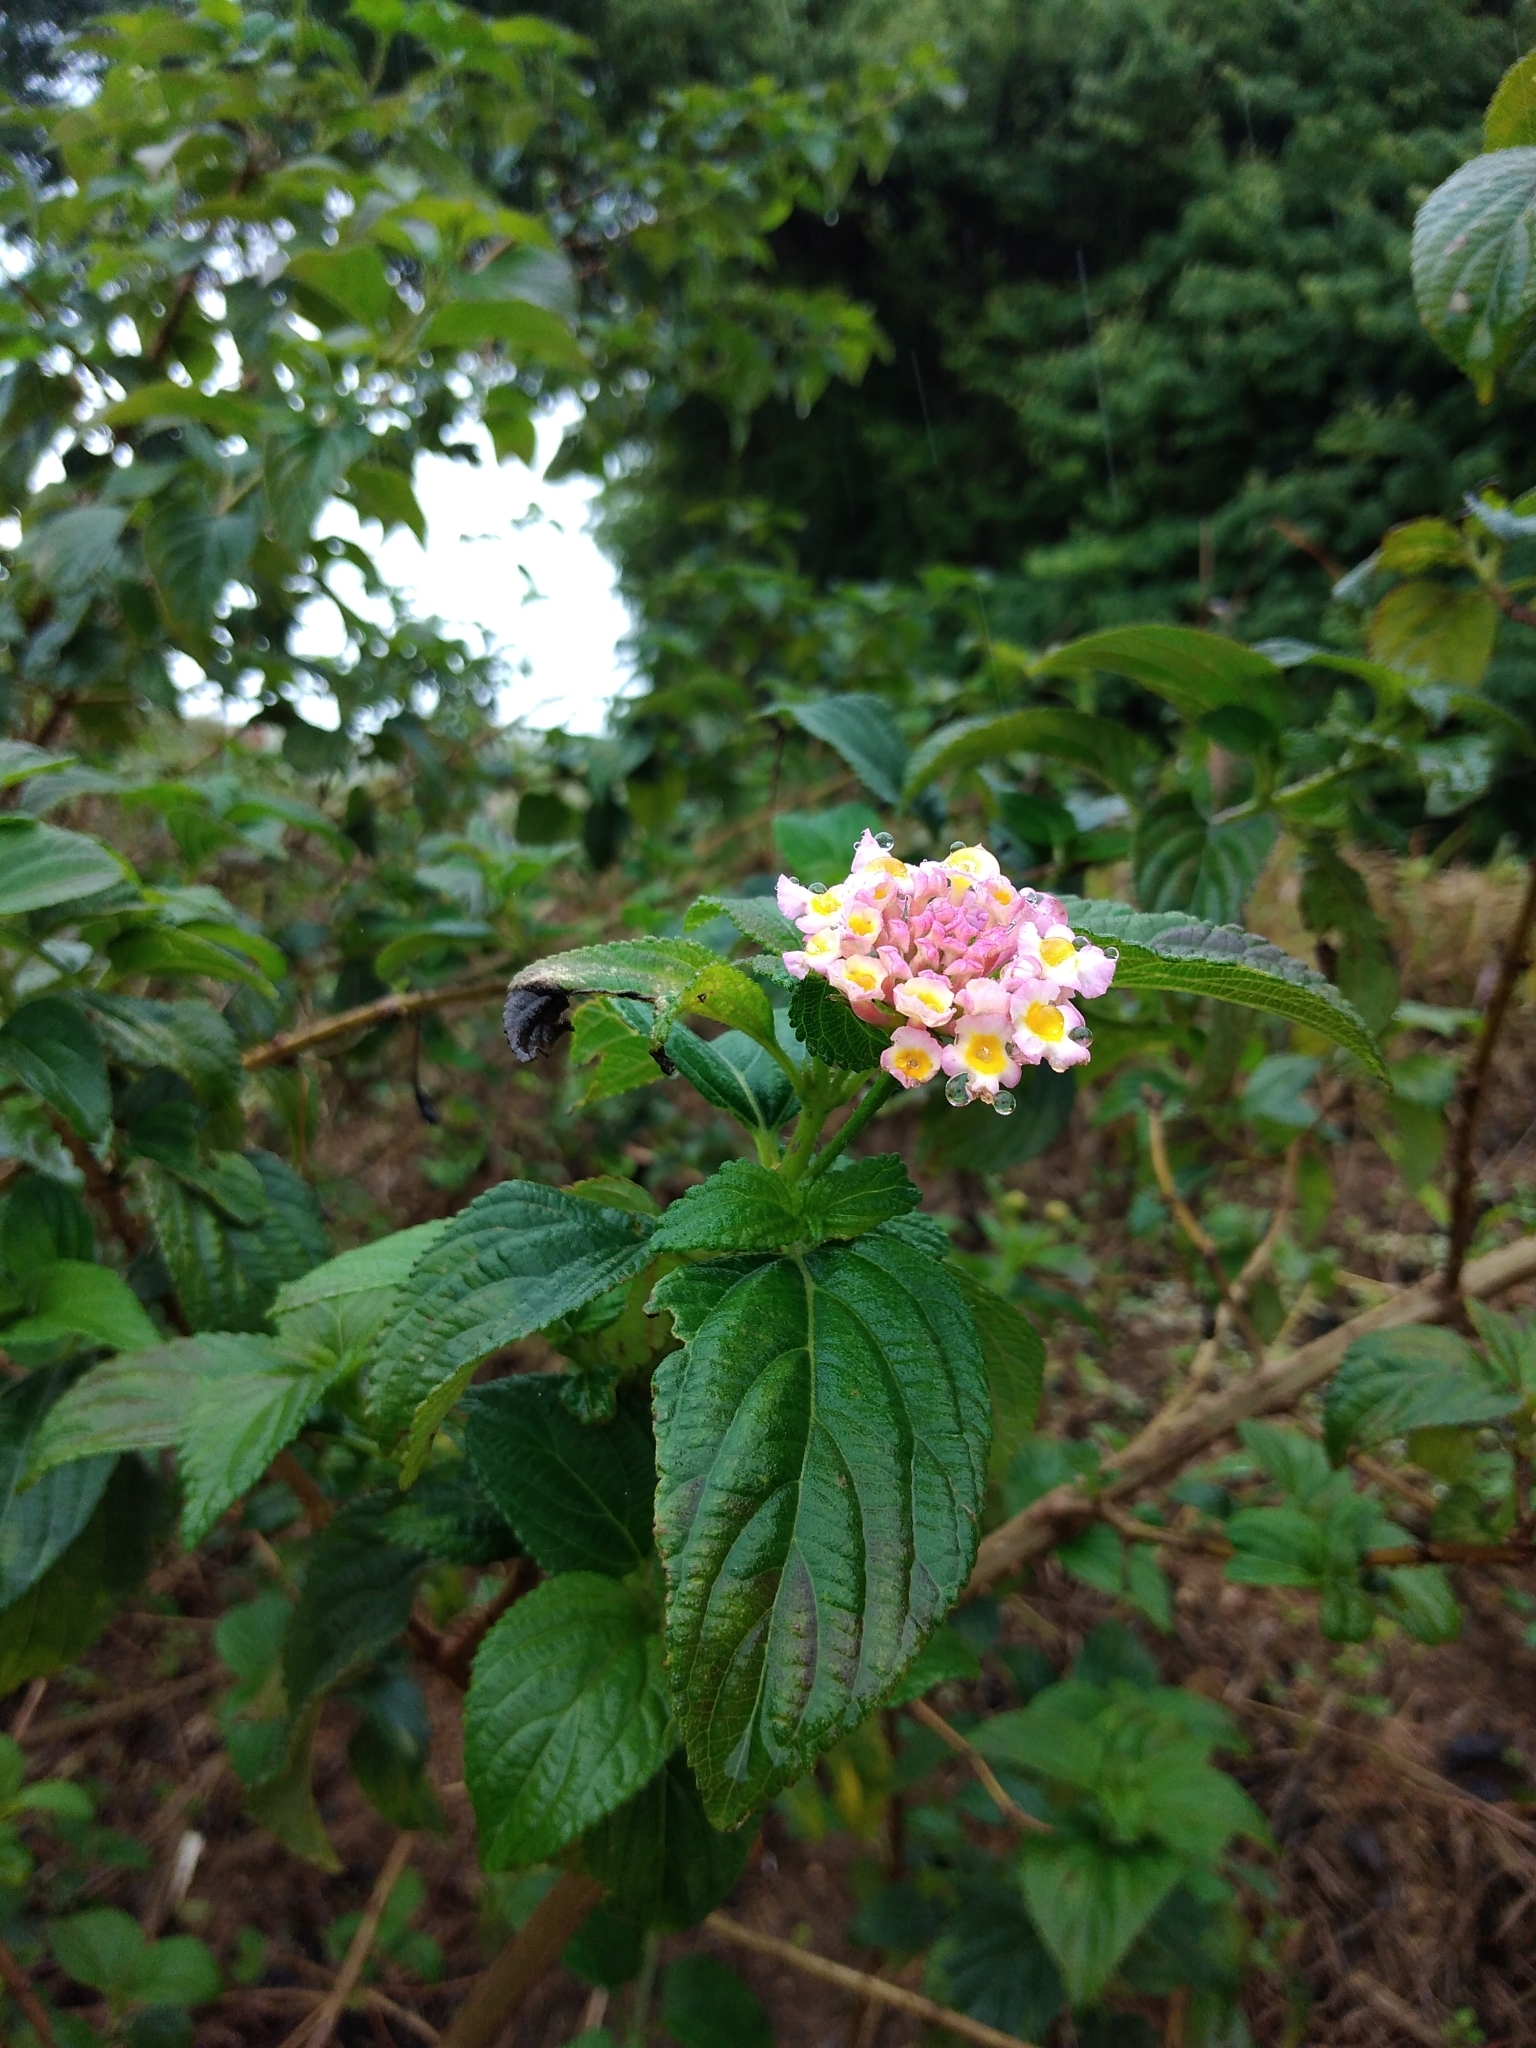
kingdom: Plantae
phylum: Tracheophyta
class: Magnoliopsida
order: Lamiales
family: Verbenaceae
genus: Lantana
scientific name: Lantana camara
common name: Lantana
